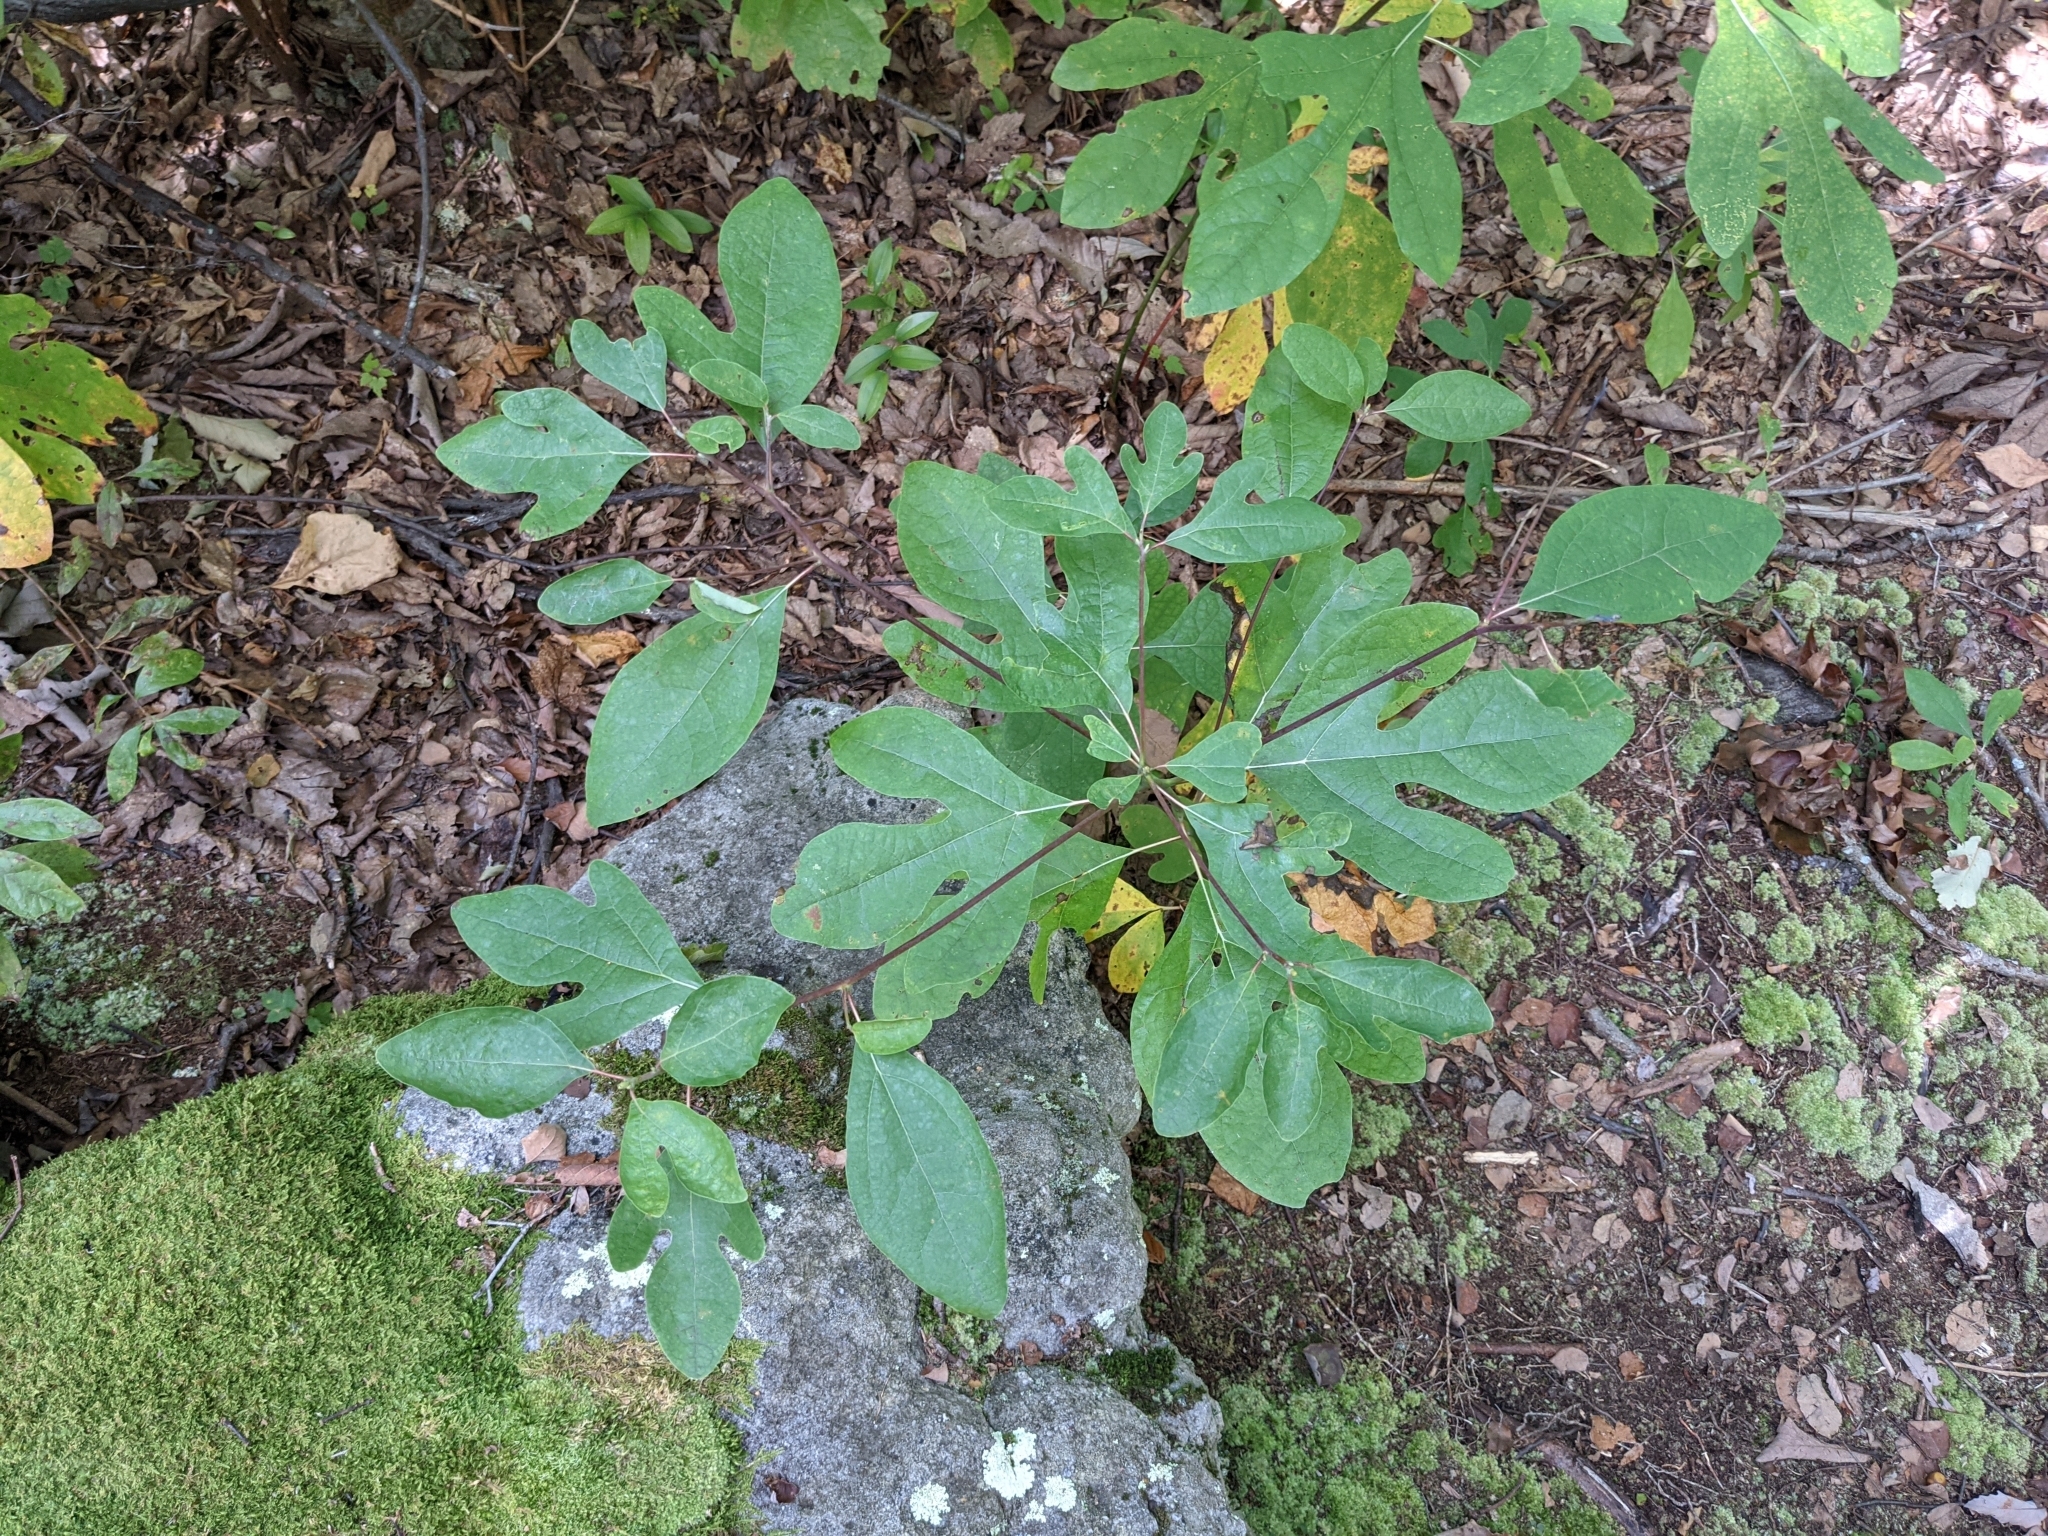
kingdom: Plantae
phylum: Tracheophyta
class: Magnoliopsida
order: Laurales
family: Lauraceae
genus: Sassafras
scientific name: Sassafras albidum
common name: Sassafras
